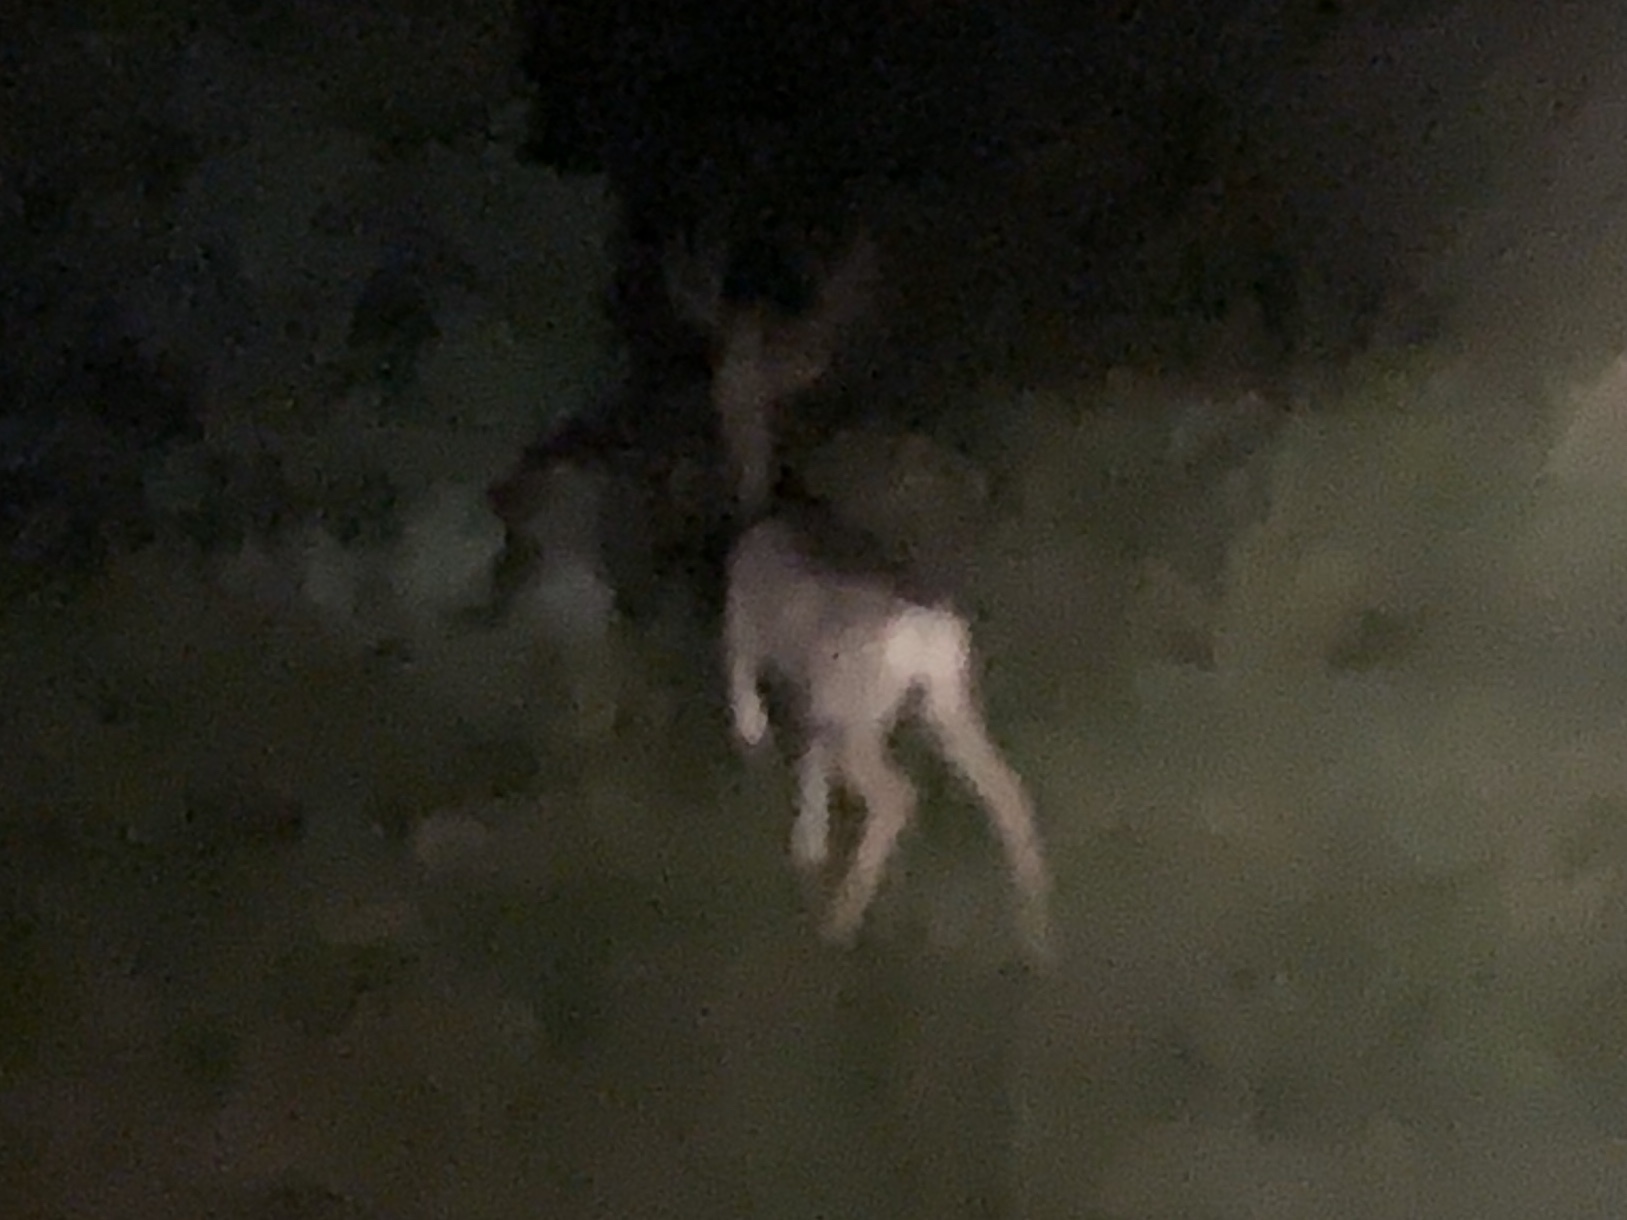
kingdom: Animalia
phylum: Chordata
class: Mammalia
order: Artiodactyla
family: Cervidae
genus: Odocoileus
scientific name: Odocoileus hemionus
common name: Mule deer
